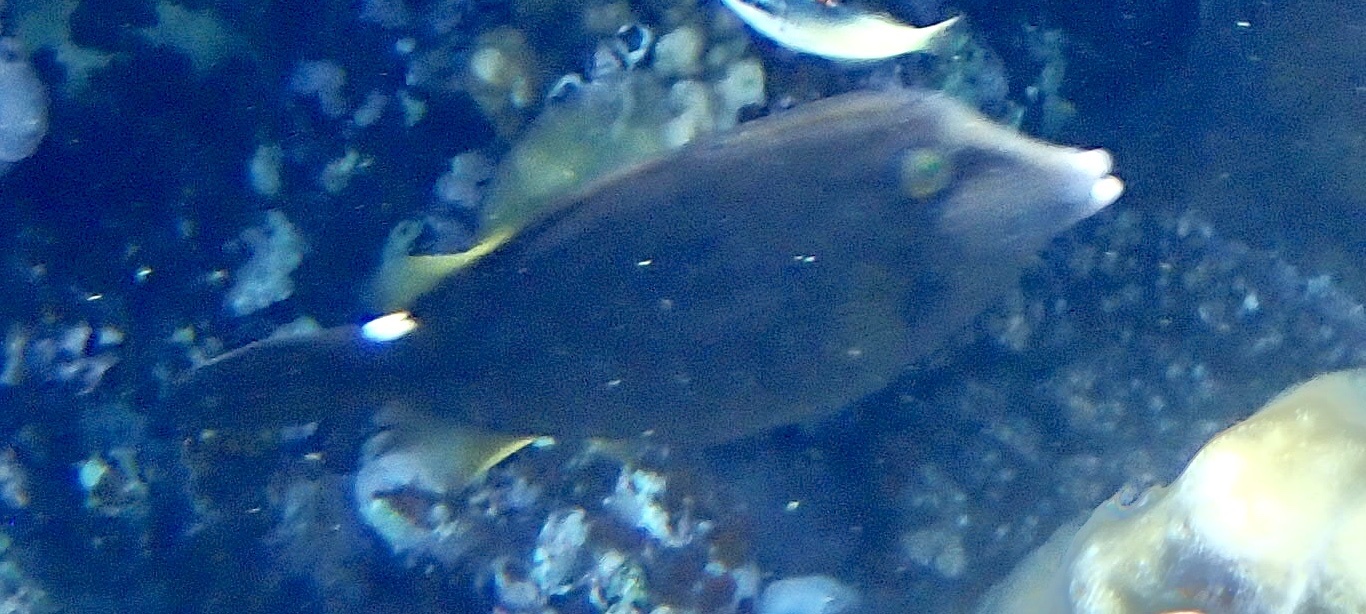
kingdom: Animalia
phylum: Chordata
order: Tetraodontiformes
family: Monacanthidae
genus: Cantherhines
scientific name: Cantherhines pardalis
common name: Honeycomb filefish
